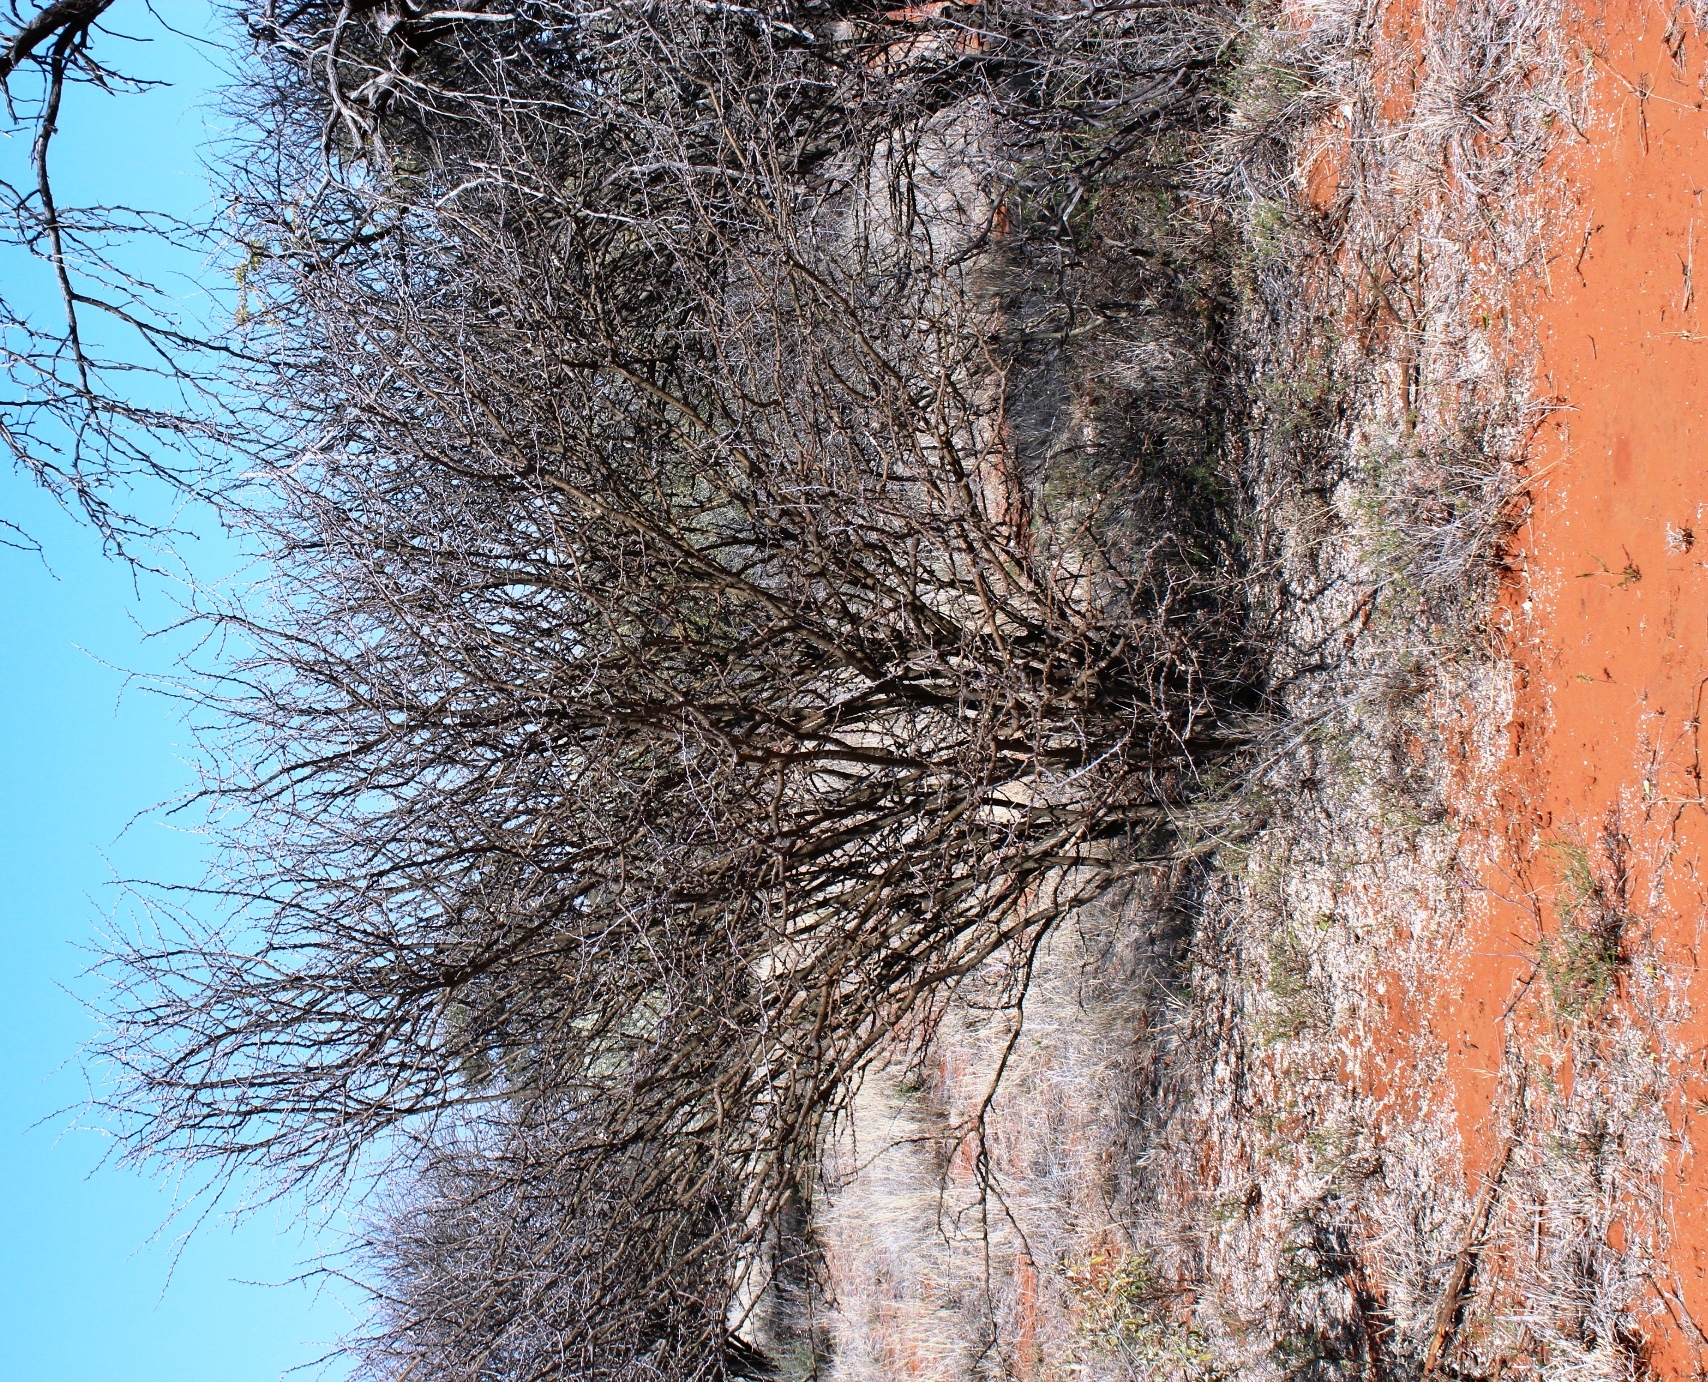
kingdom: Plantae
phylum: Tracheophyta
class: Magnoliopsida
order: Fabales
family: Fabaceae
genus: Senegalia
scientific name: Senegalia mellifera
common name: Hookthorn
